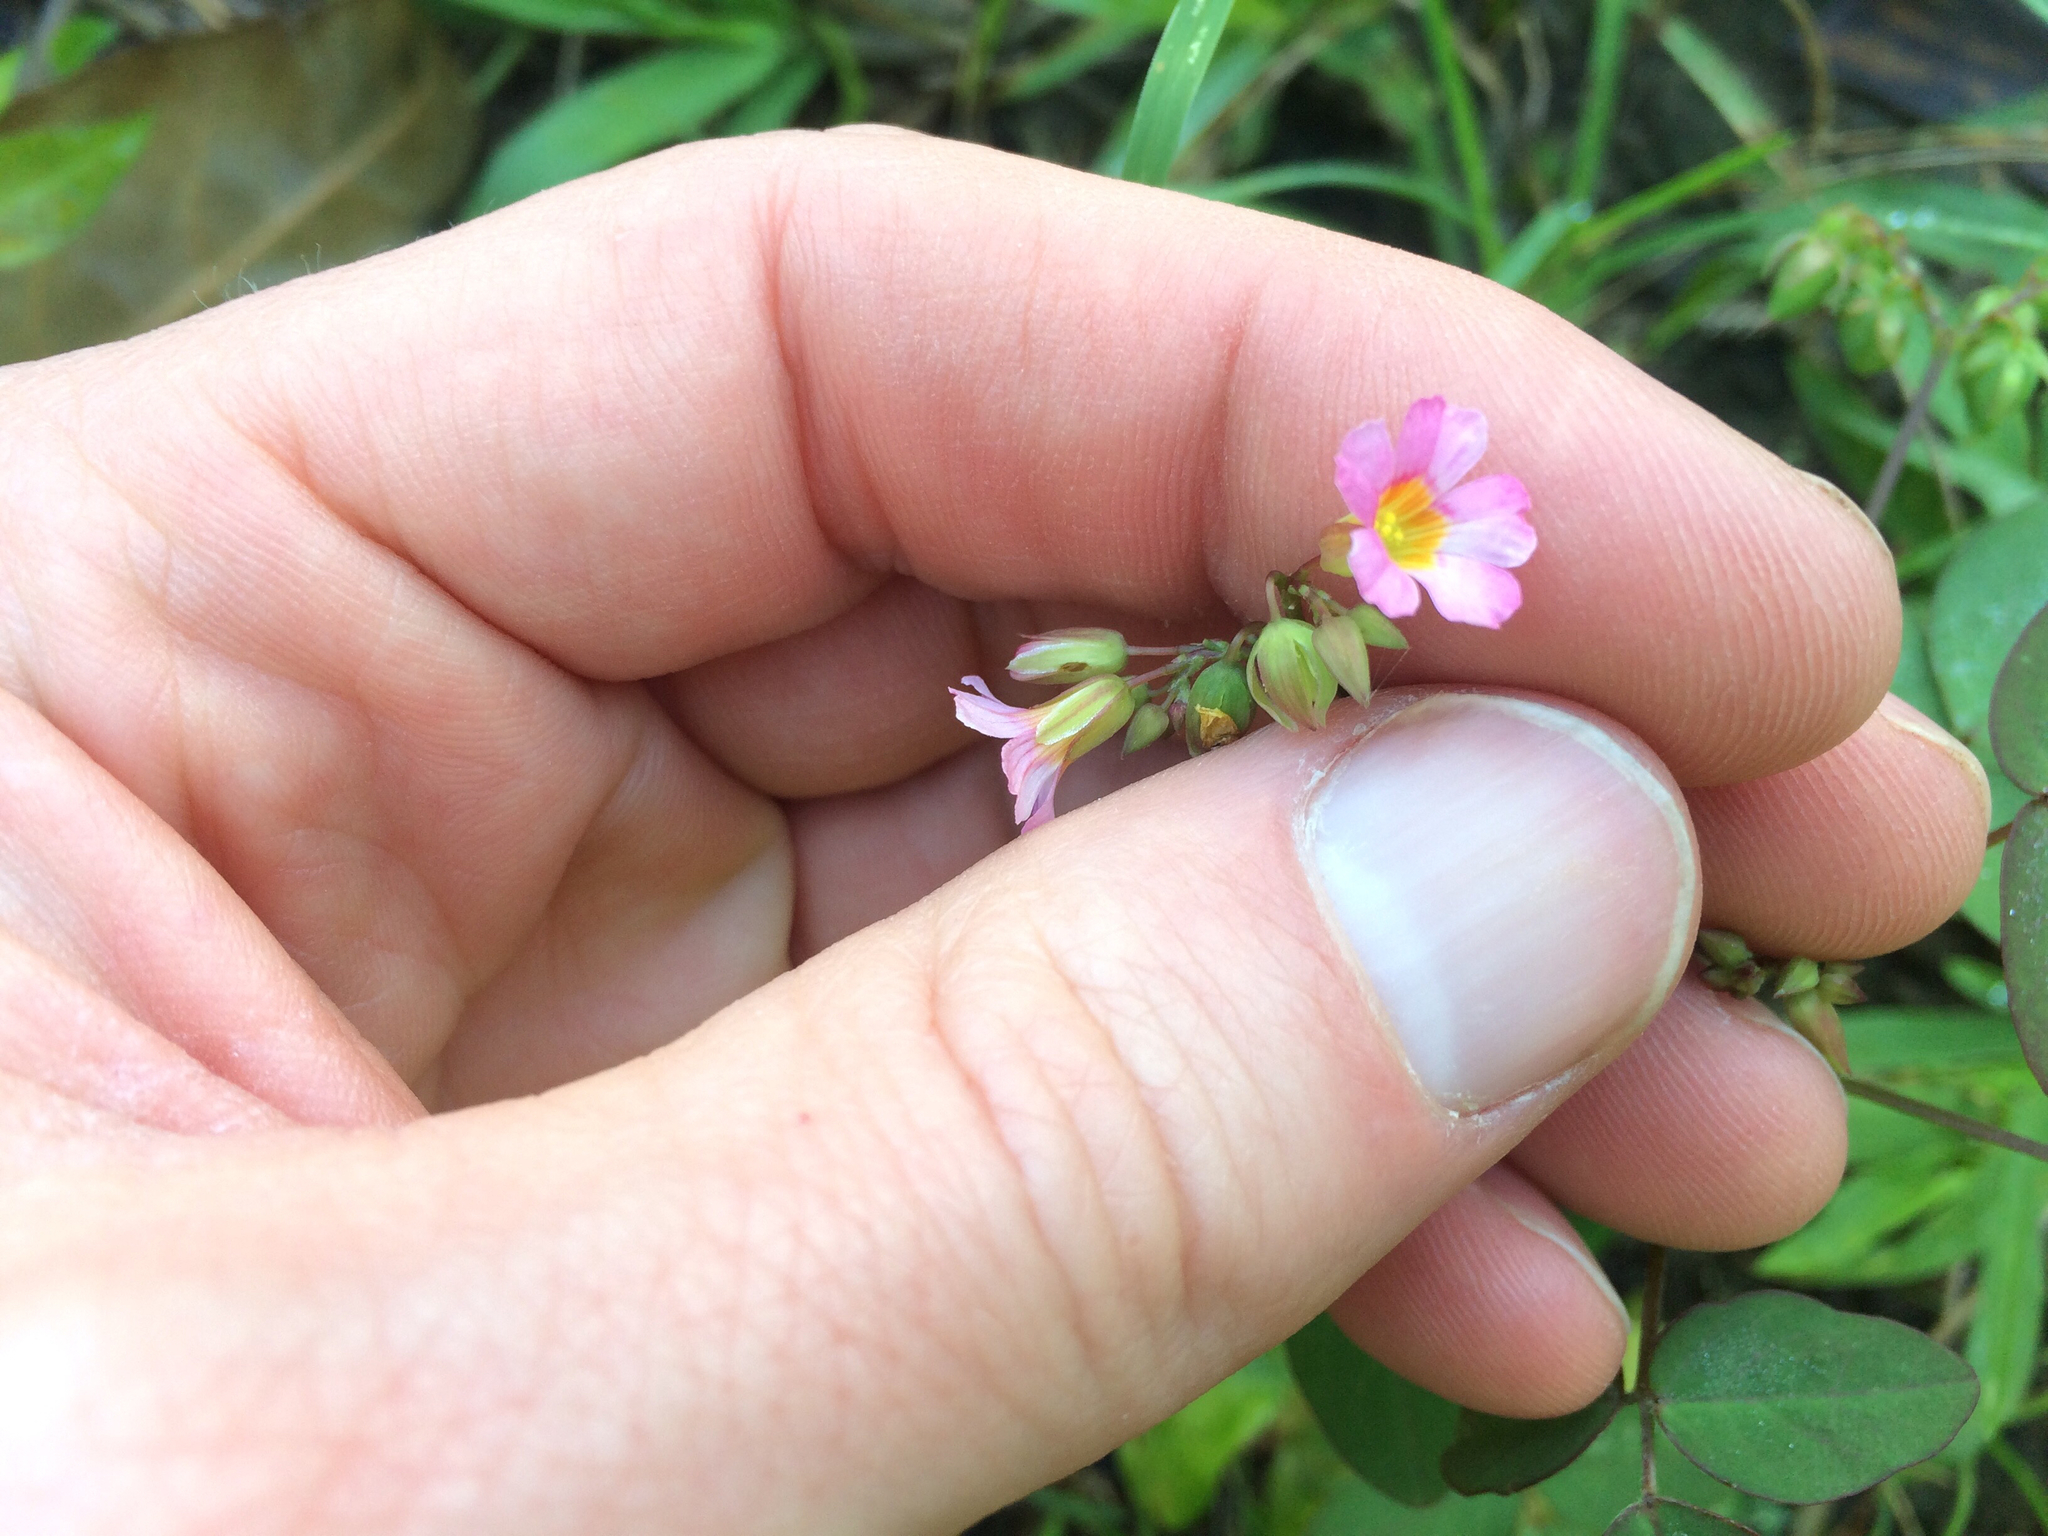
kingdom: Plantae
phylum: Tracheophyta
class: Magnoliopsida
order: Oxalidales
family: Oxalidaceae
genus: Oxalis
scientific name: Oxalis barrelieri
